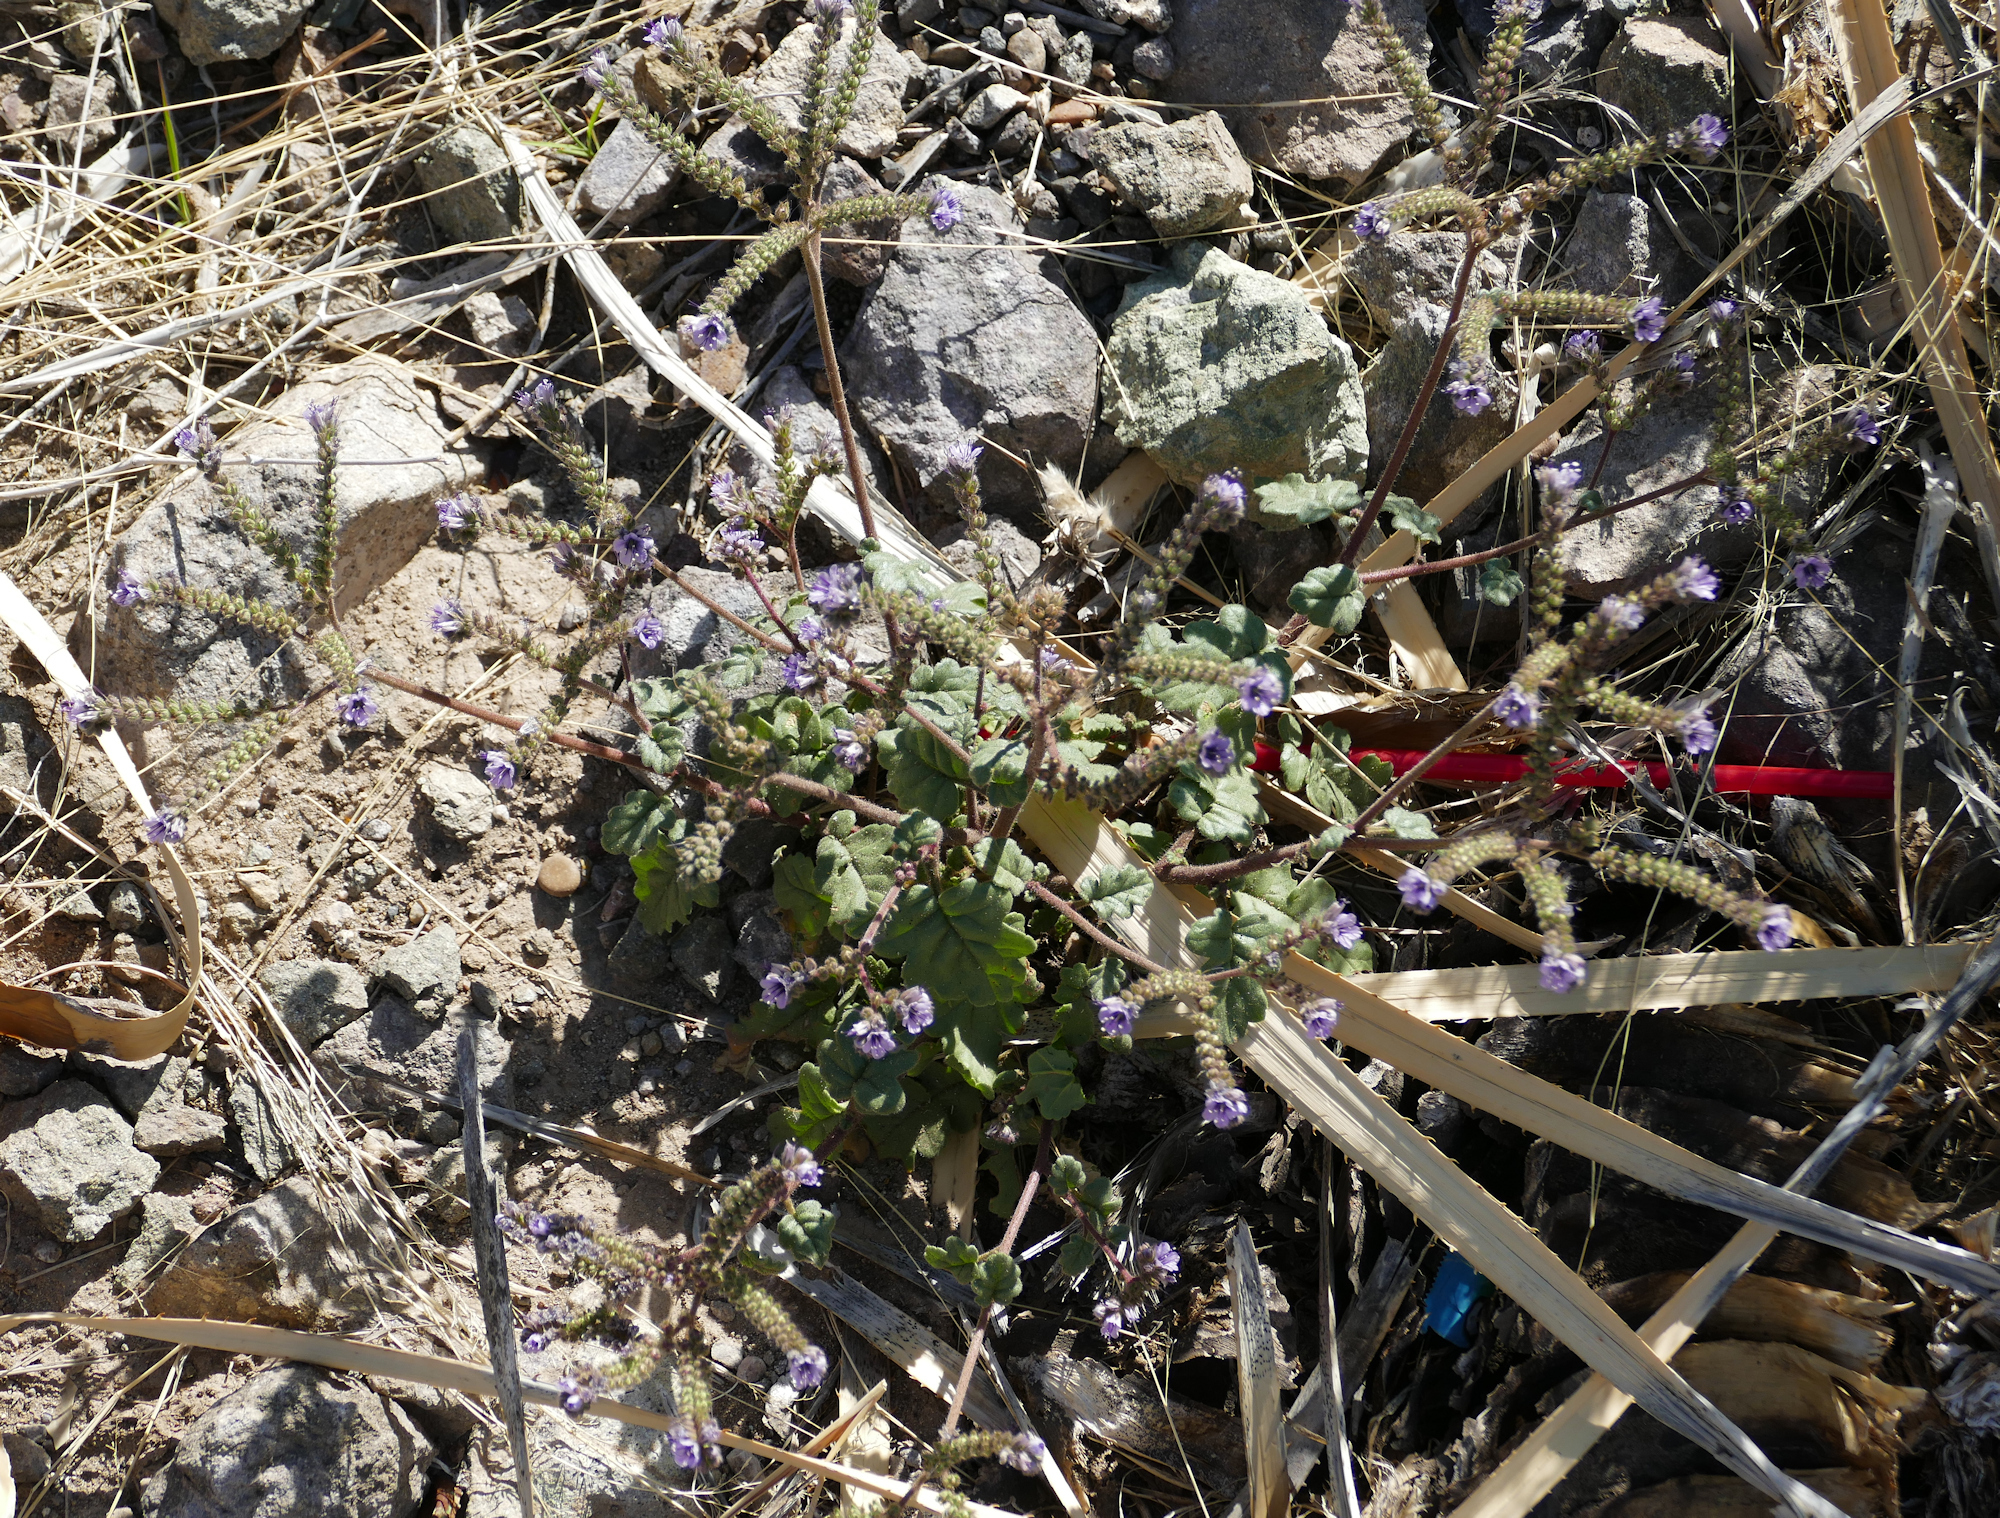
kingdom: Plantae
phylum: Tracheophyta
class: Magnoliopsida
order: Boraginales
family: Hydrophyllaceae
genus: Phacelia
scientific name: Phacelia bombycina
